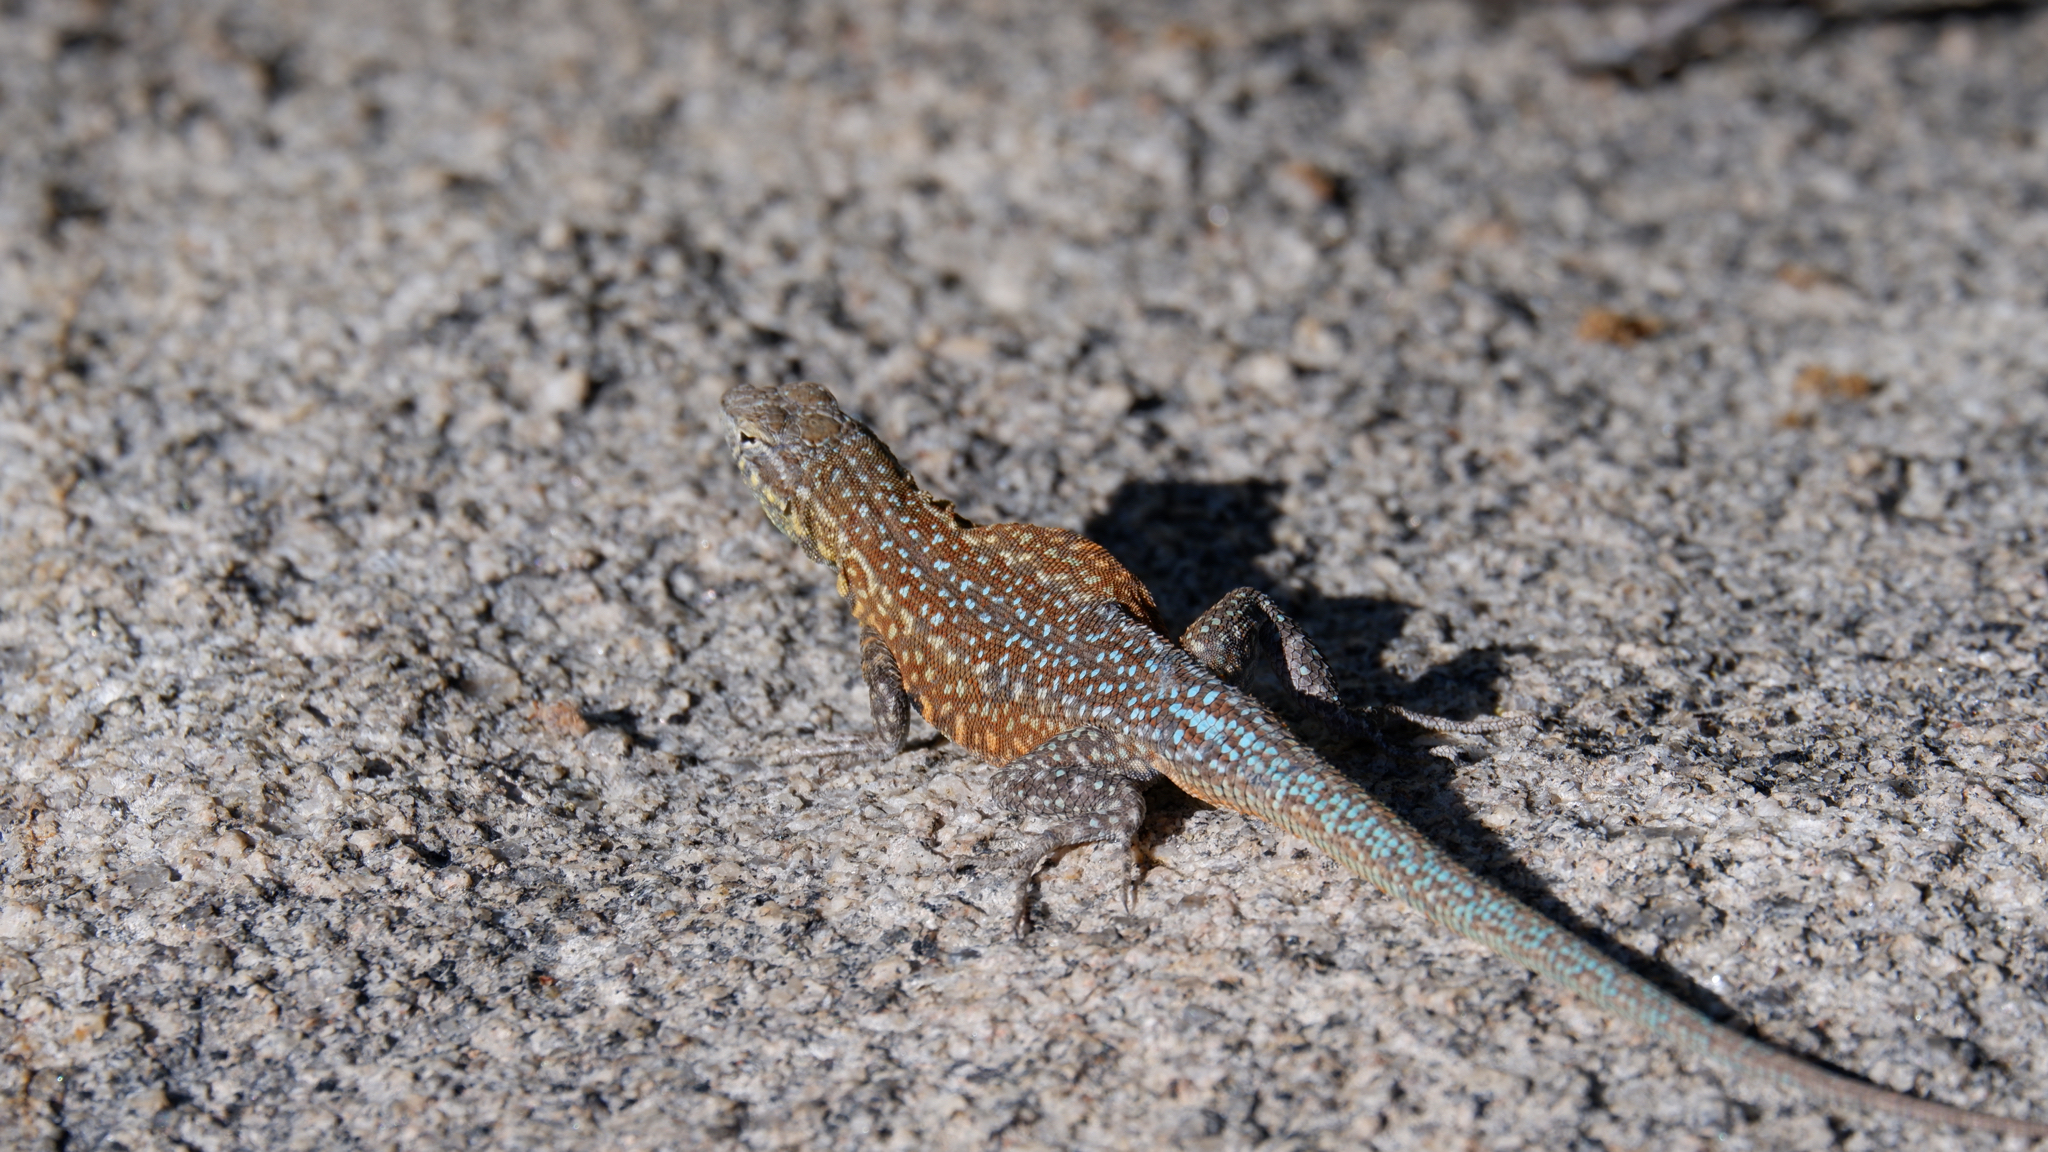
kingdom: Animalia
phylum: Chordata
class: Squamata
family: Phrynosomatidae
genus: Uta
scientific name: Uta stansburiana
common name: Side-blotched lizard
